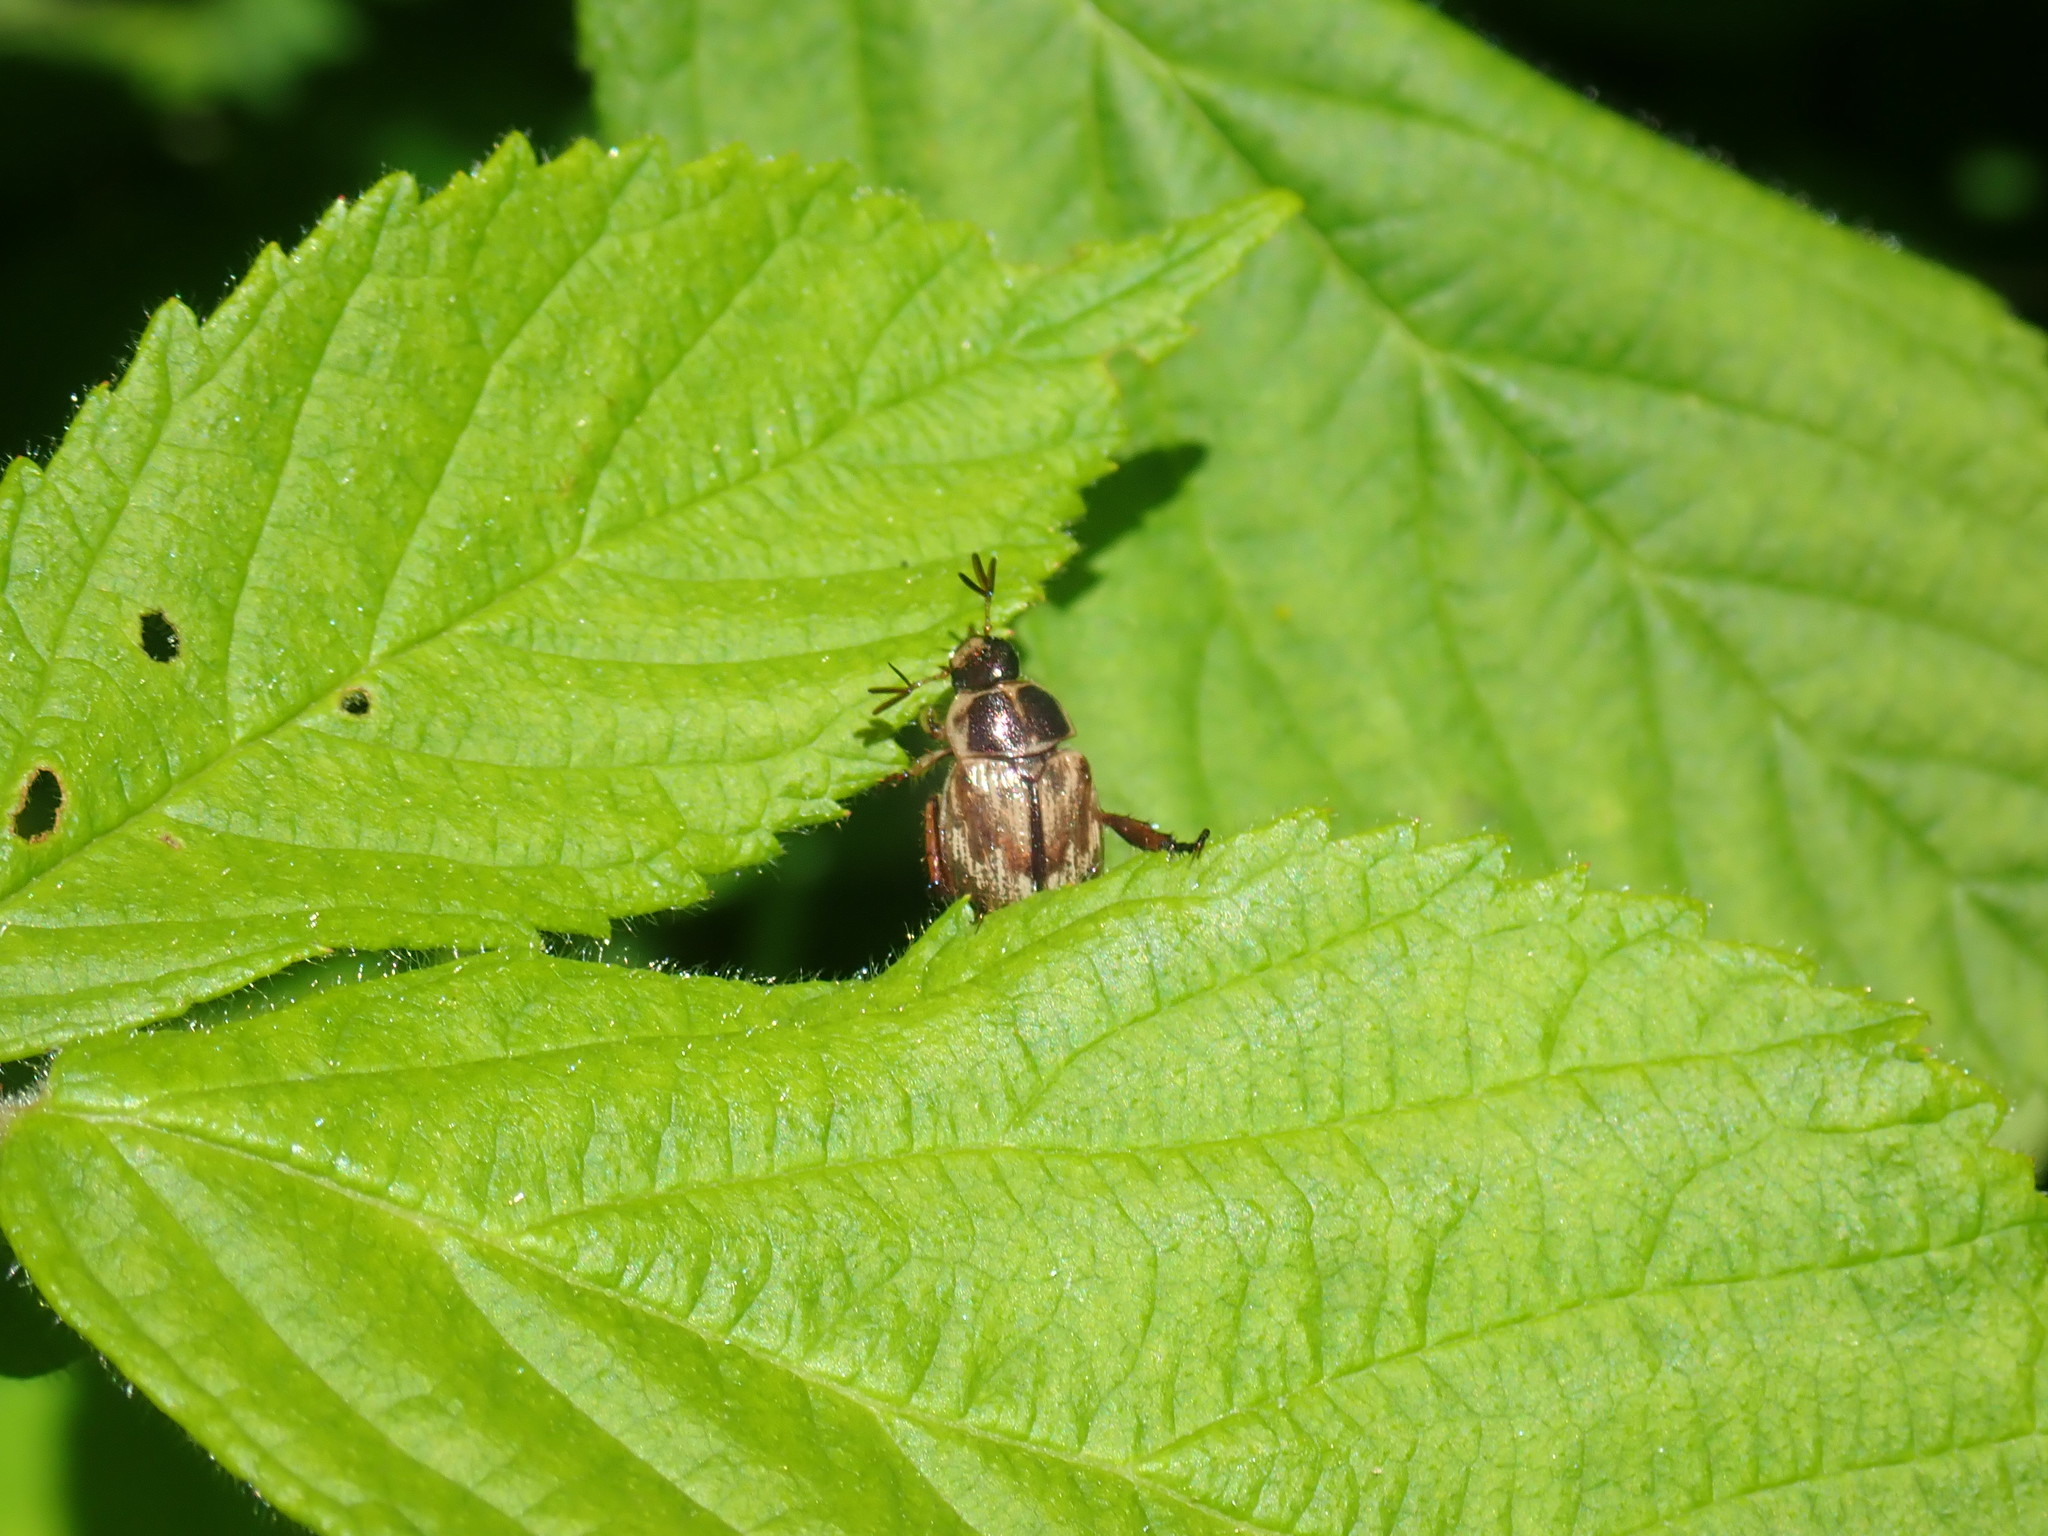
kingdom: Animalia
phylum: Arthropoda
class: Insecta
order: Coleoptera
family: Scarabaeidae
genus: Exomala
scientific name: Exomala orientalis
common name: Oriental beetle
